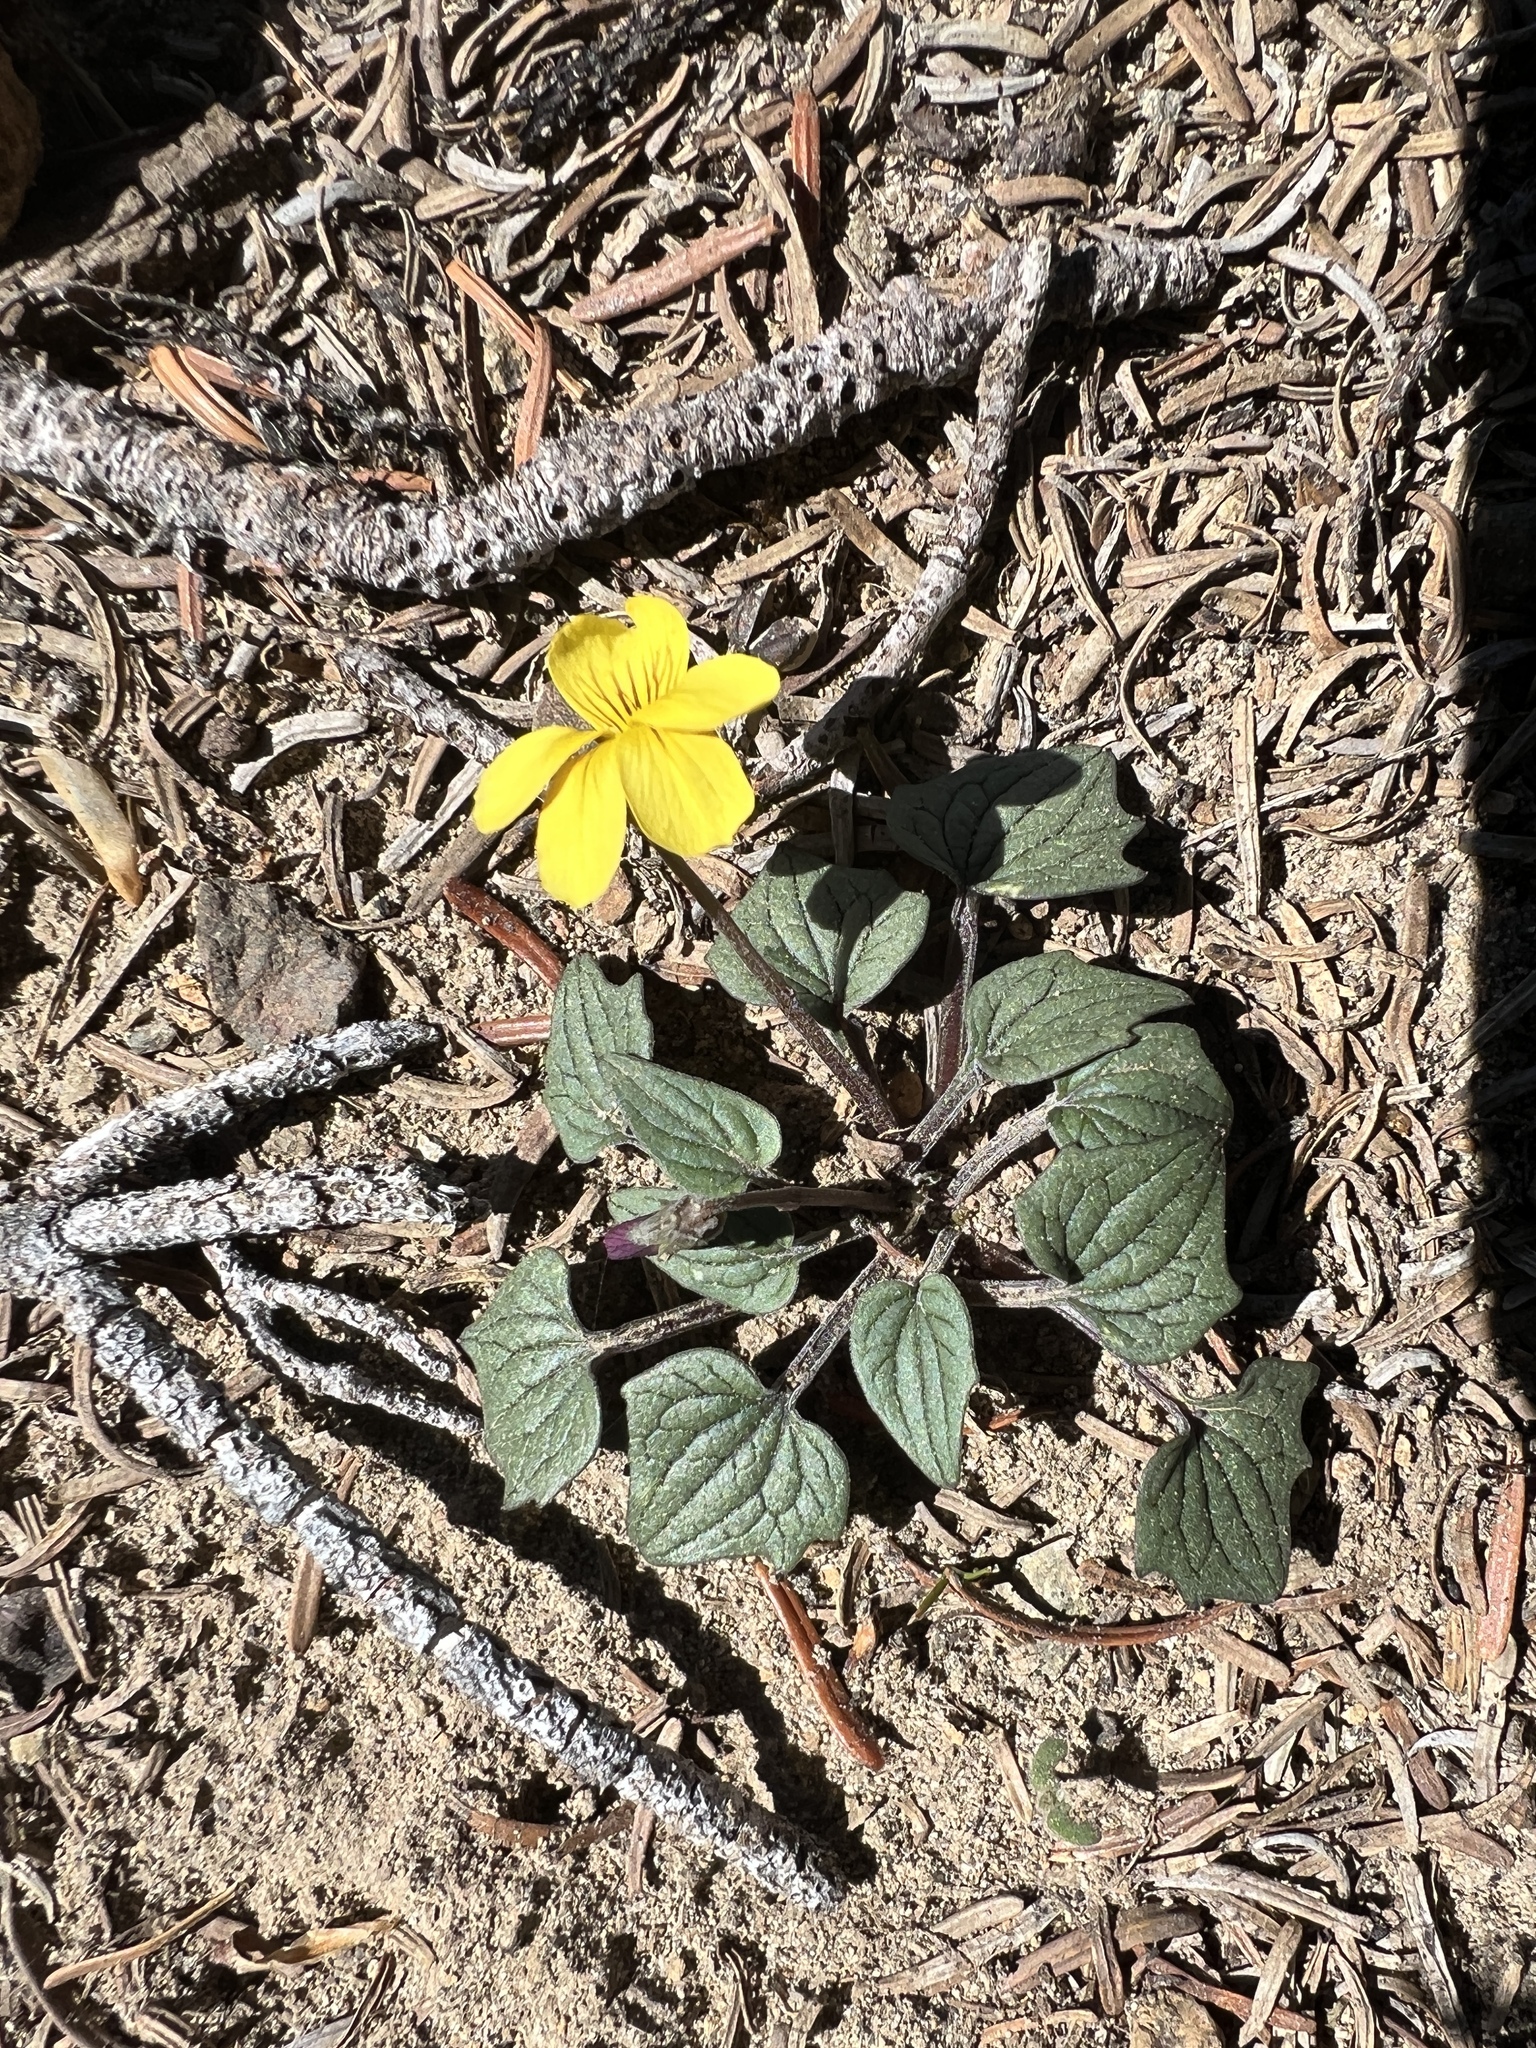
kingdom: Plantae
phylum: Tracheophyta
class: Magnoliopsida
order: Malpighiales
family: Violaceae
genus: Viola
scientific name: Viola purpurea
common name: Pine violet
